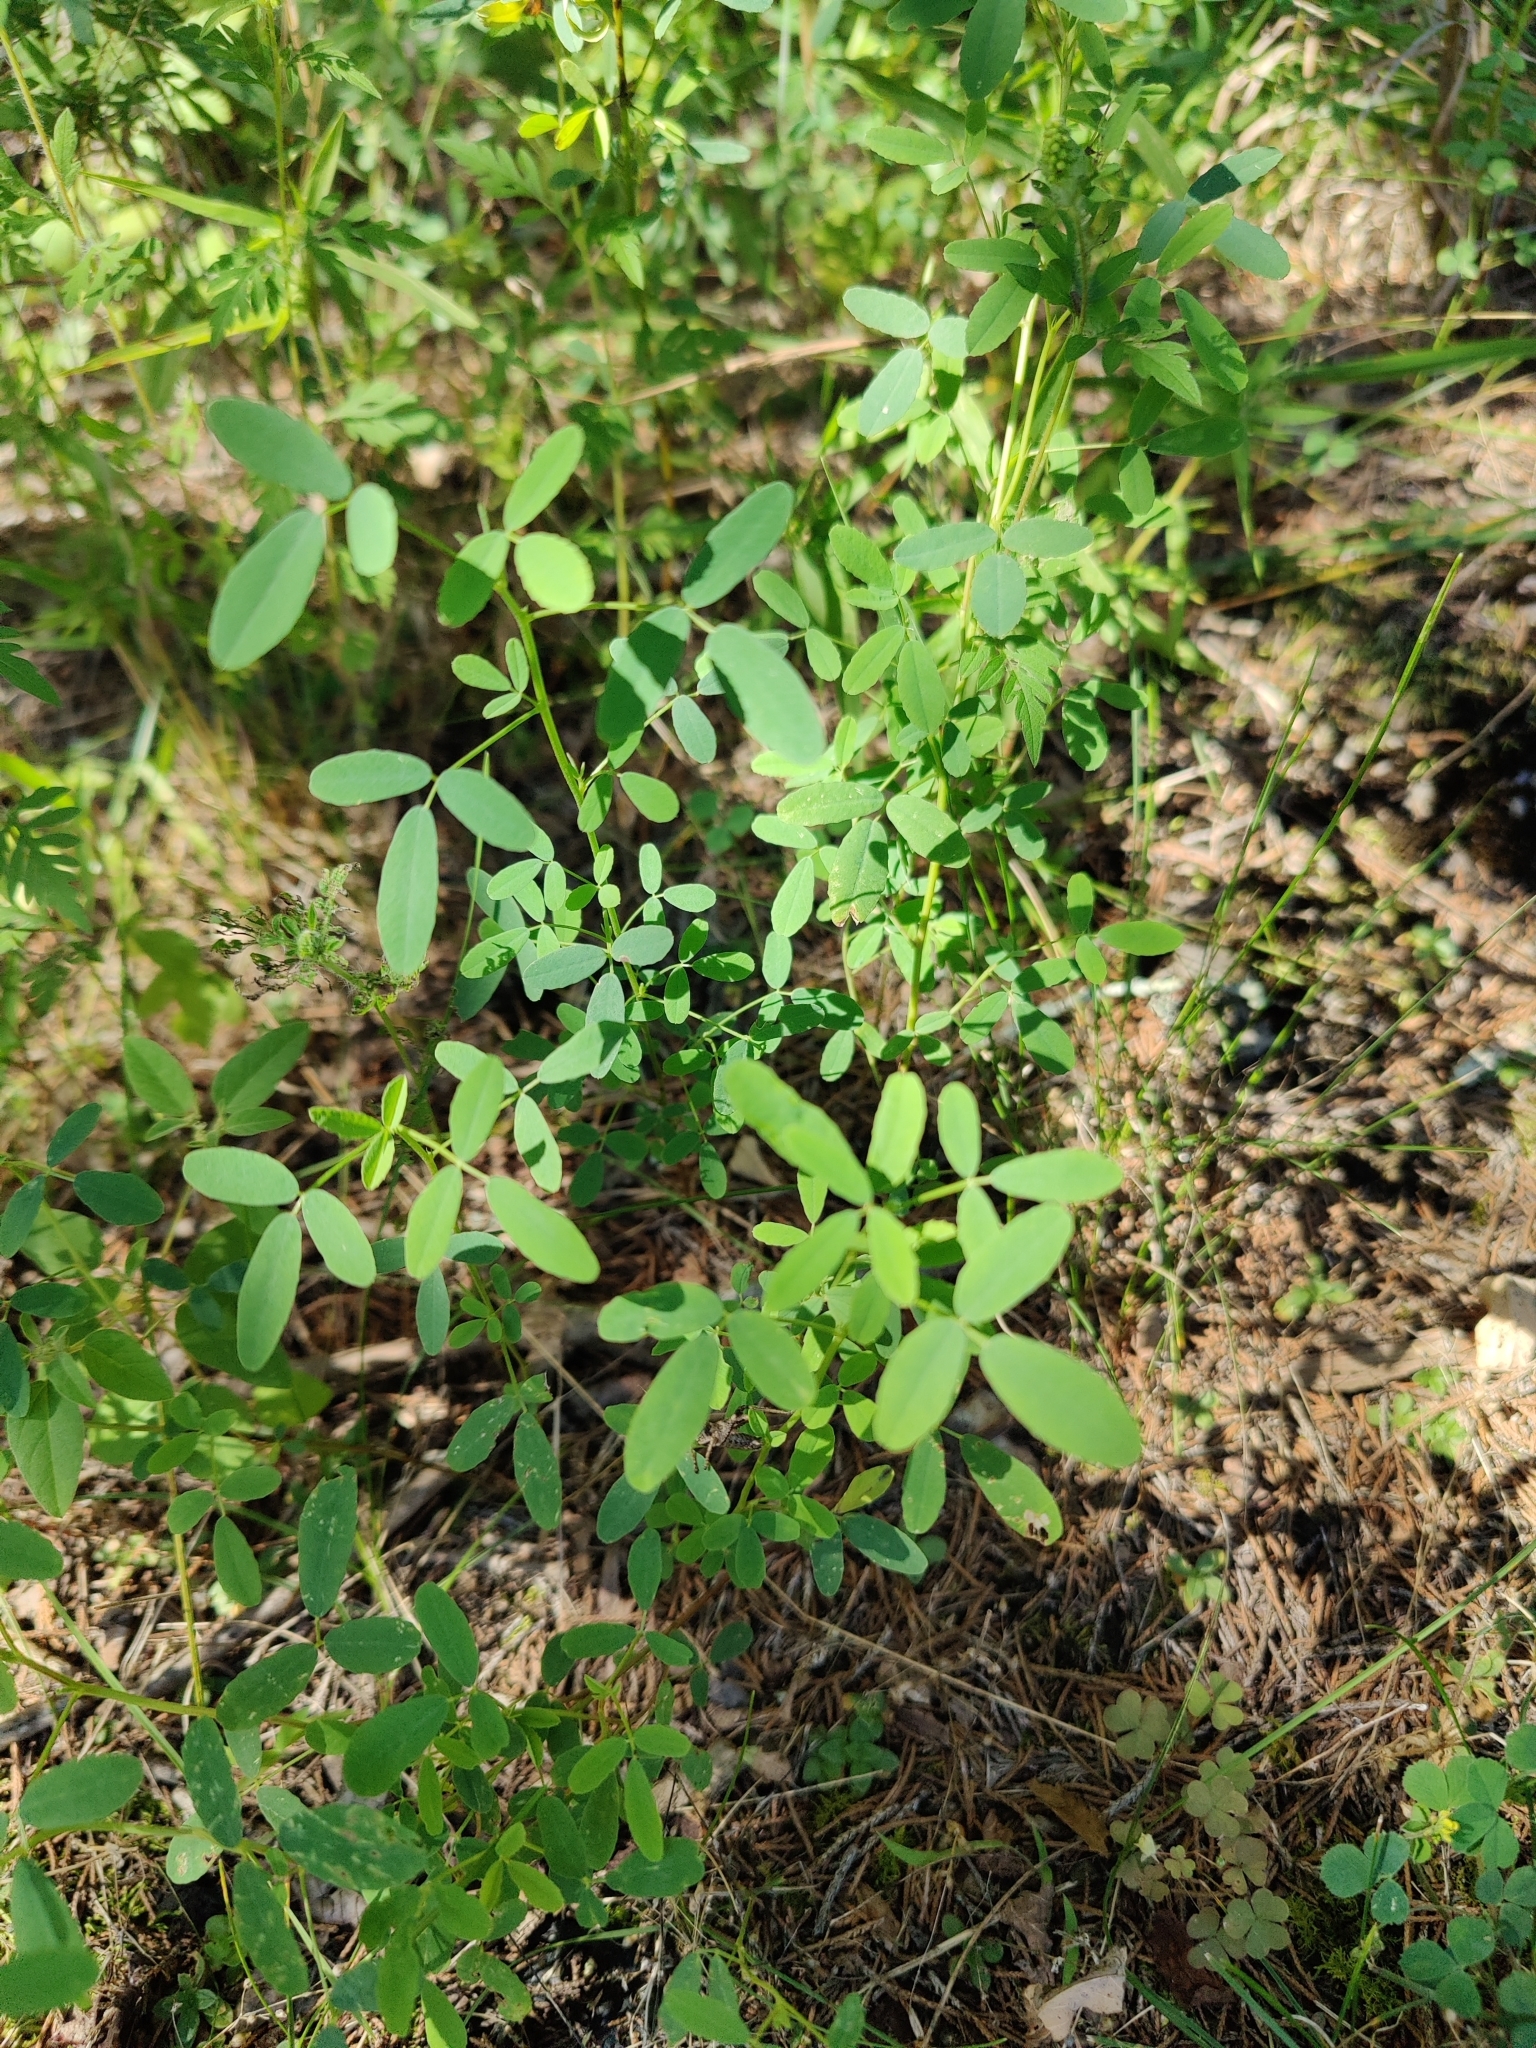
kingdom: Plantae
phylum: Tracheophyta
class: Magnoliopsida
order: Fabales
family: Fabaceae
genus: Melilotus
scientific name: Melilotus albus
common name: White melilot
